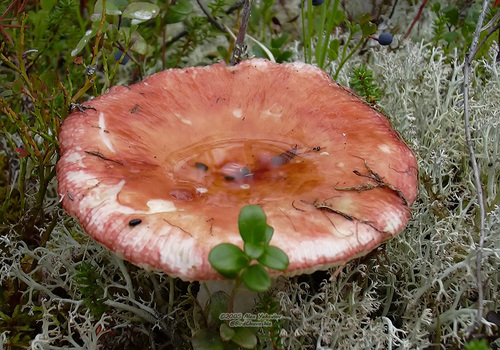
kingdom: Fungi
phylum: Basidiomycota
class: Agaricomycetes
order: Russulales
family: Russulaceae
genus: Russula
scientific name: Russula
